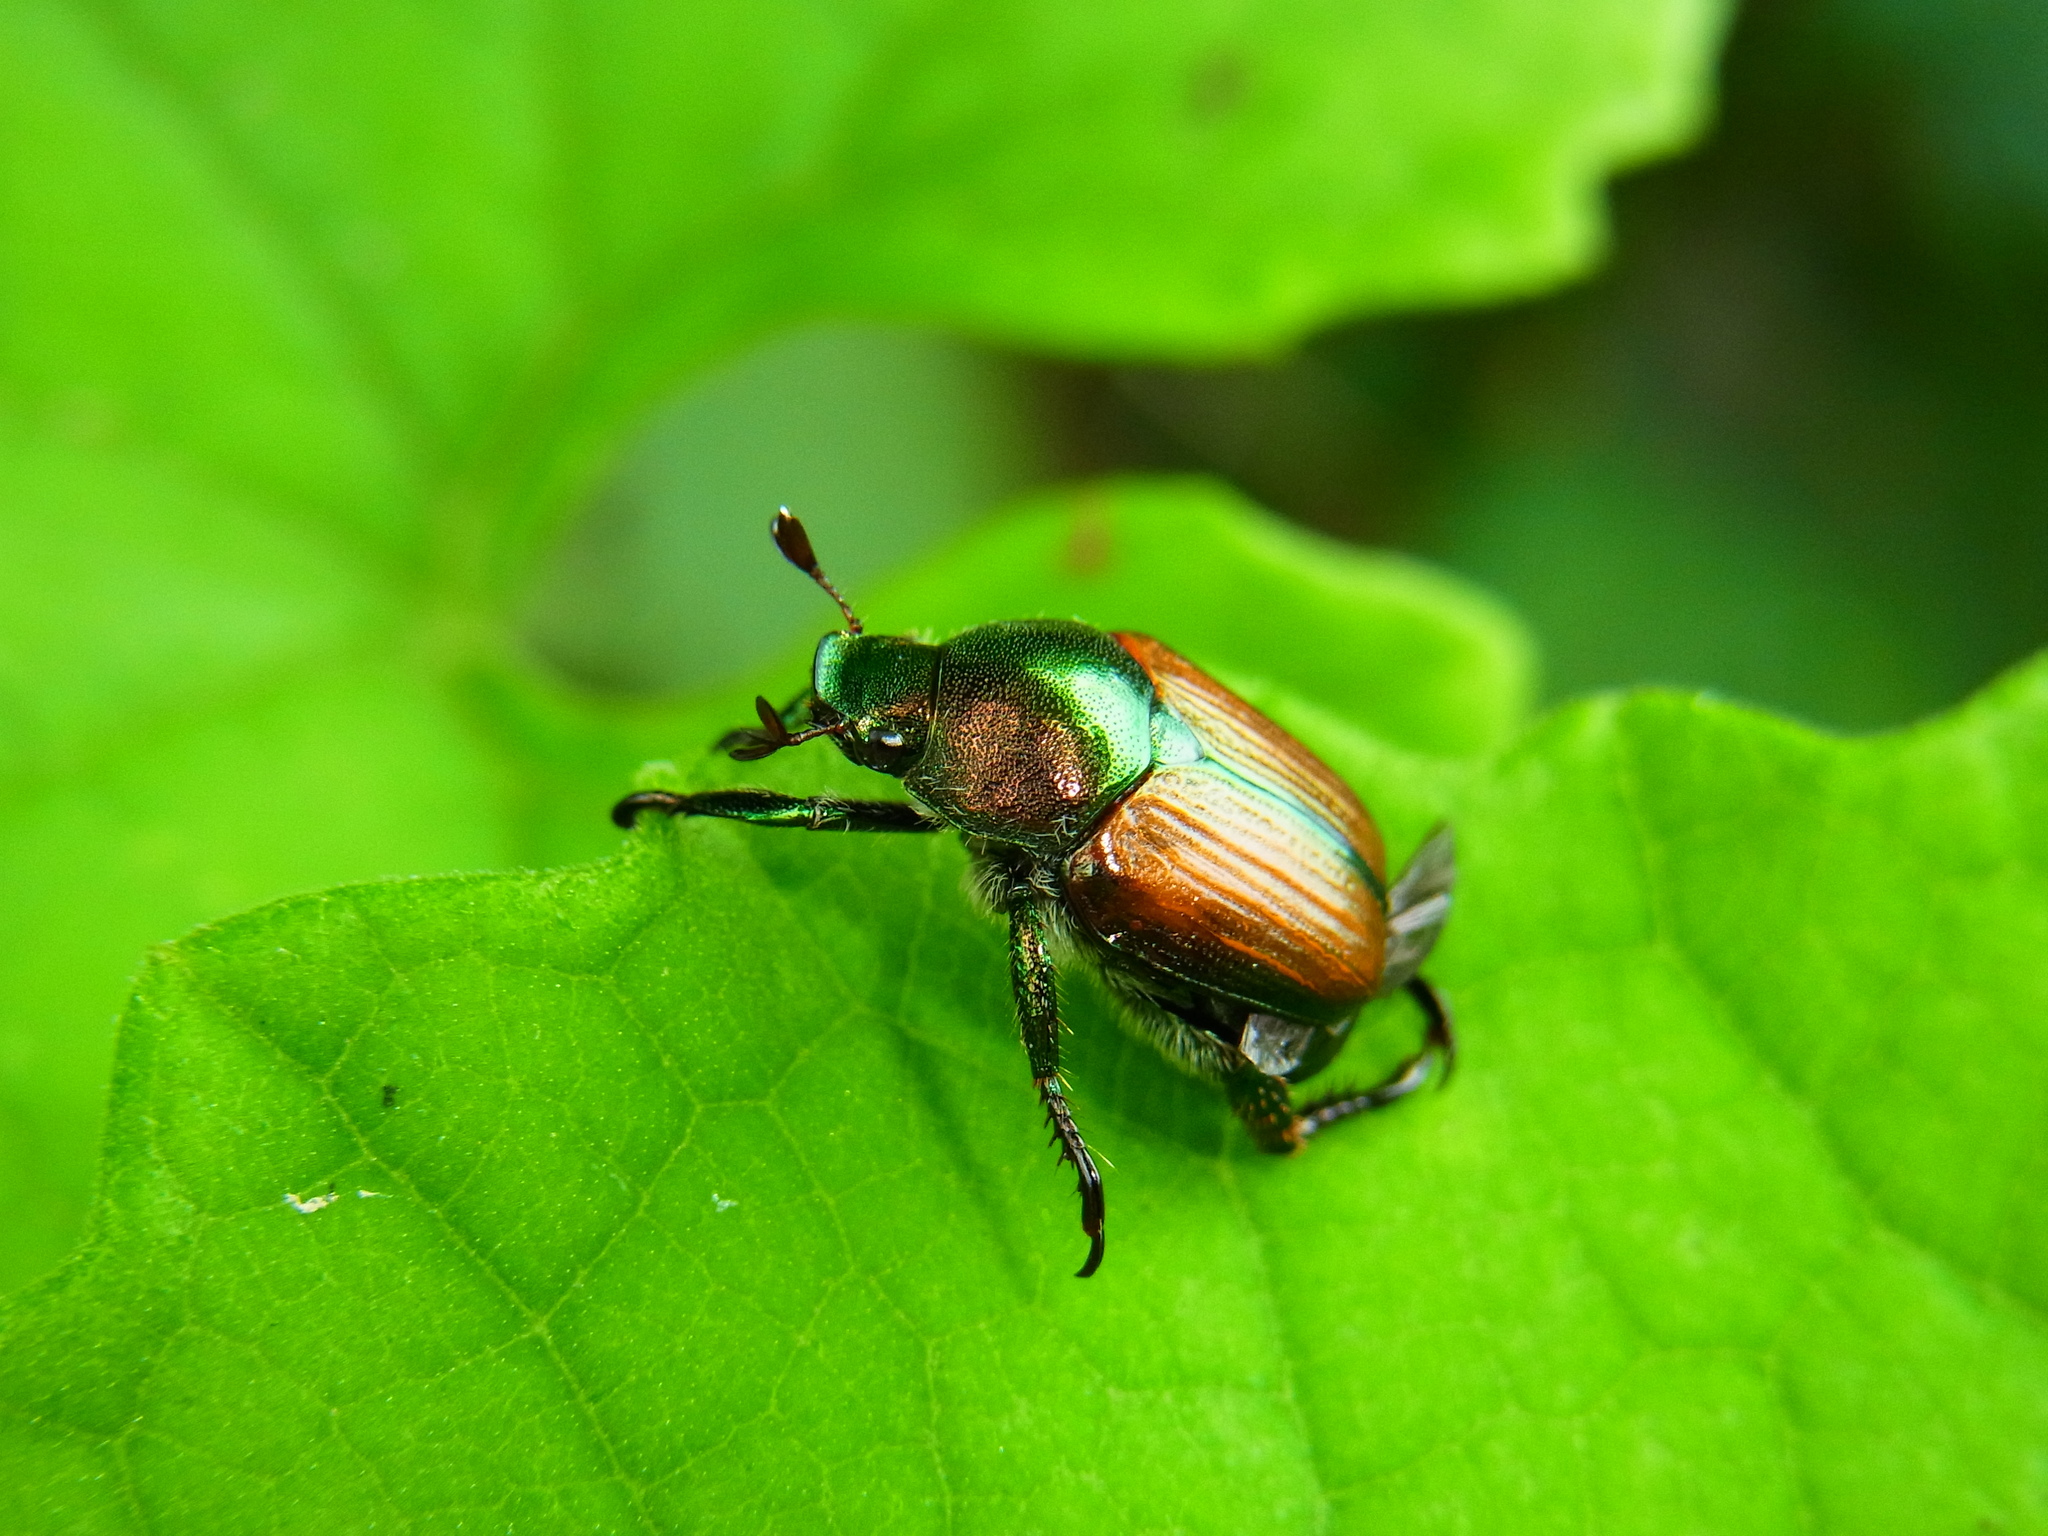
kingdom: Animalia
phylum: Arthropoda
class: Insecta
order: Coleoptera
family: Scarabaeidae
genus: Popillia
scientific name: Popillia japonica
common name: Japanese beetle
